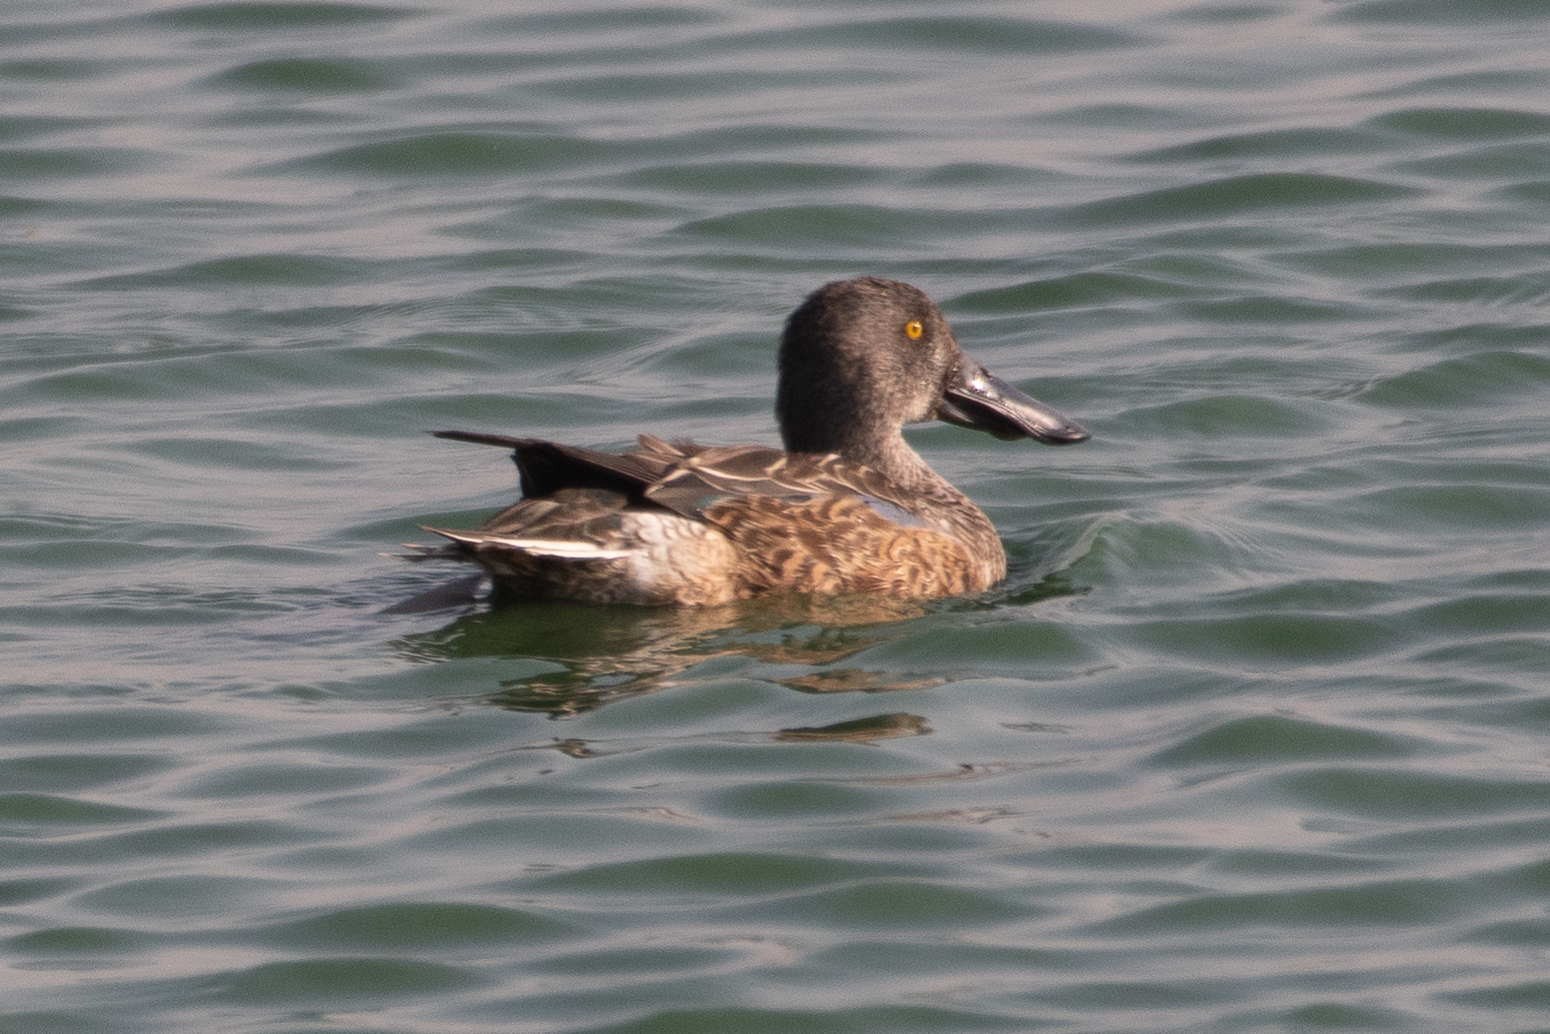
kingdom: Animalia
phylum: Chordata
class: Aves
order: Anseriformes
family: Anatidae
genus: Spatula
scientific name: Spatula clypeata
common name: Northern shoveler
